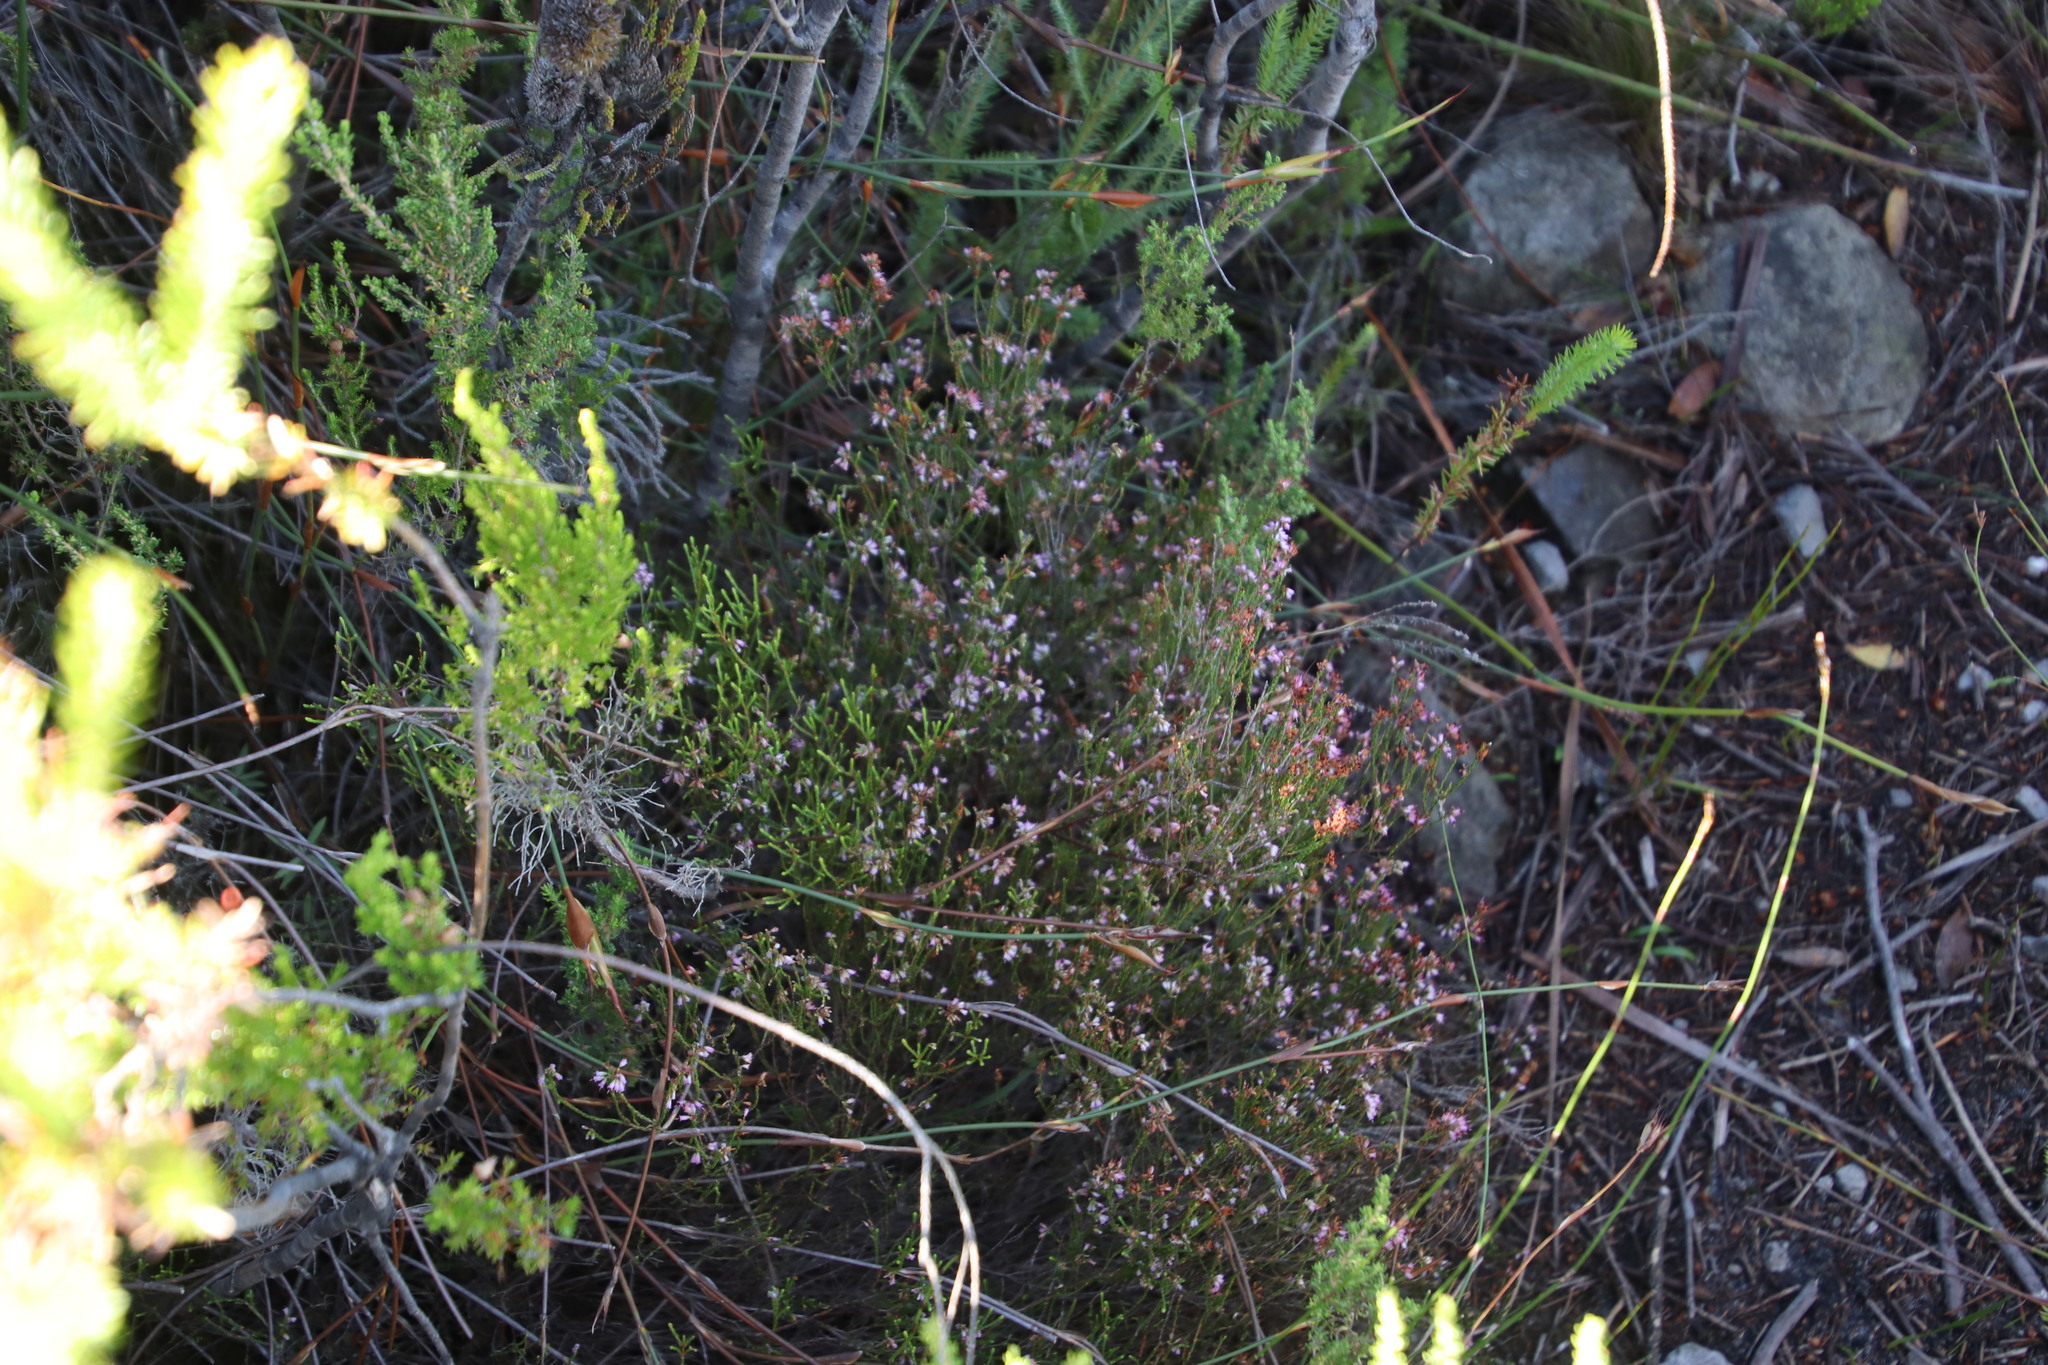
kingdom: Plantae
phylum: Tracheophyta
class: Magnoliopsida
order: Ericales
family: Ericaceae
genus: Erica
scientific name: Erica equisetifolia
